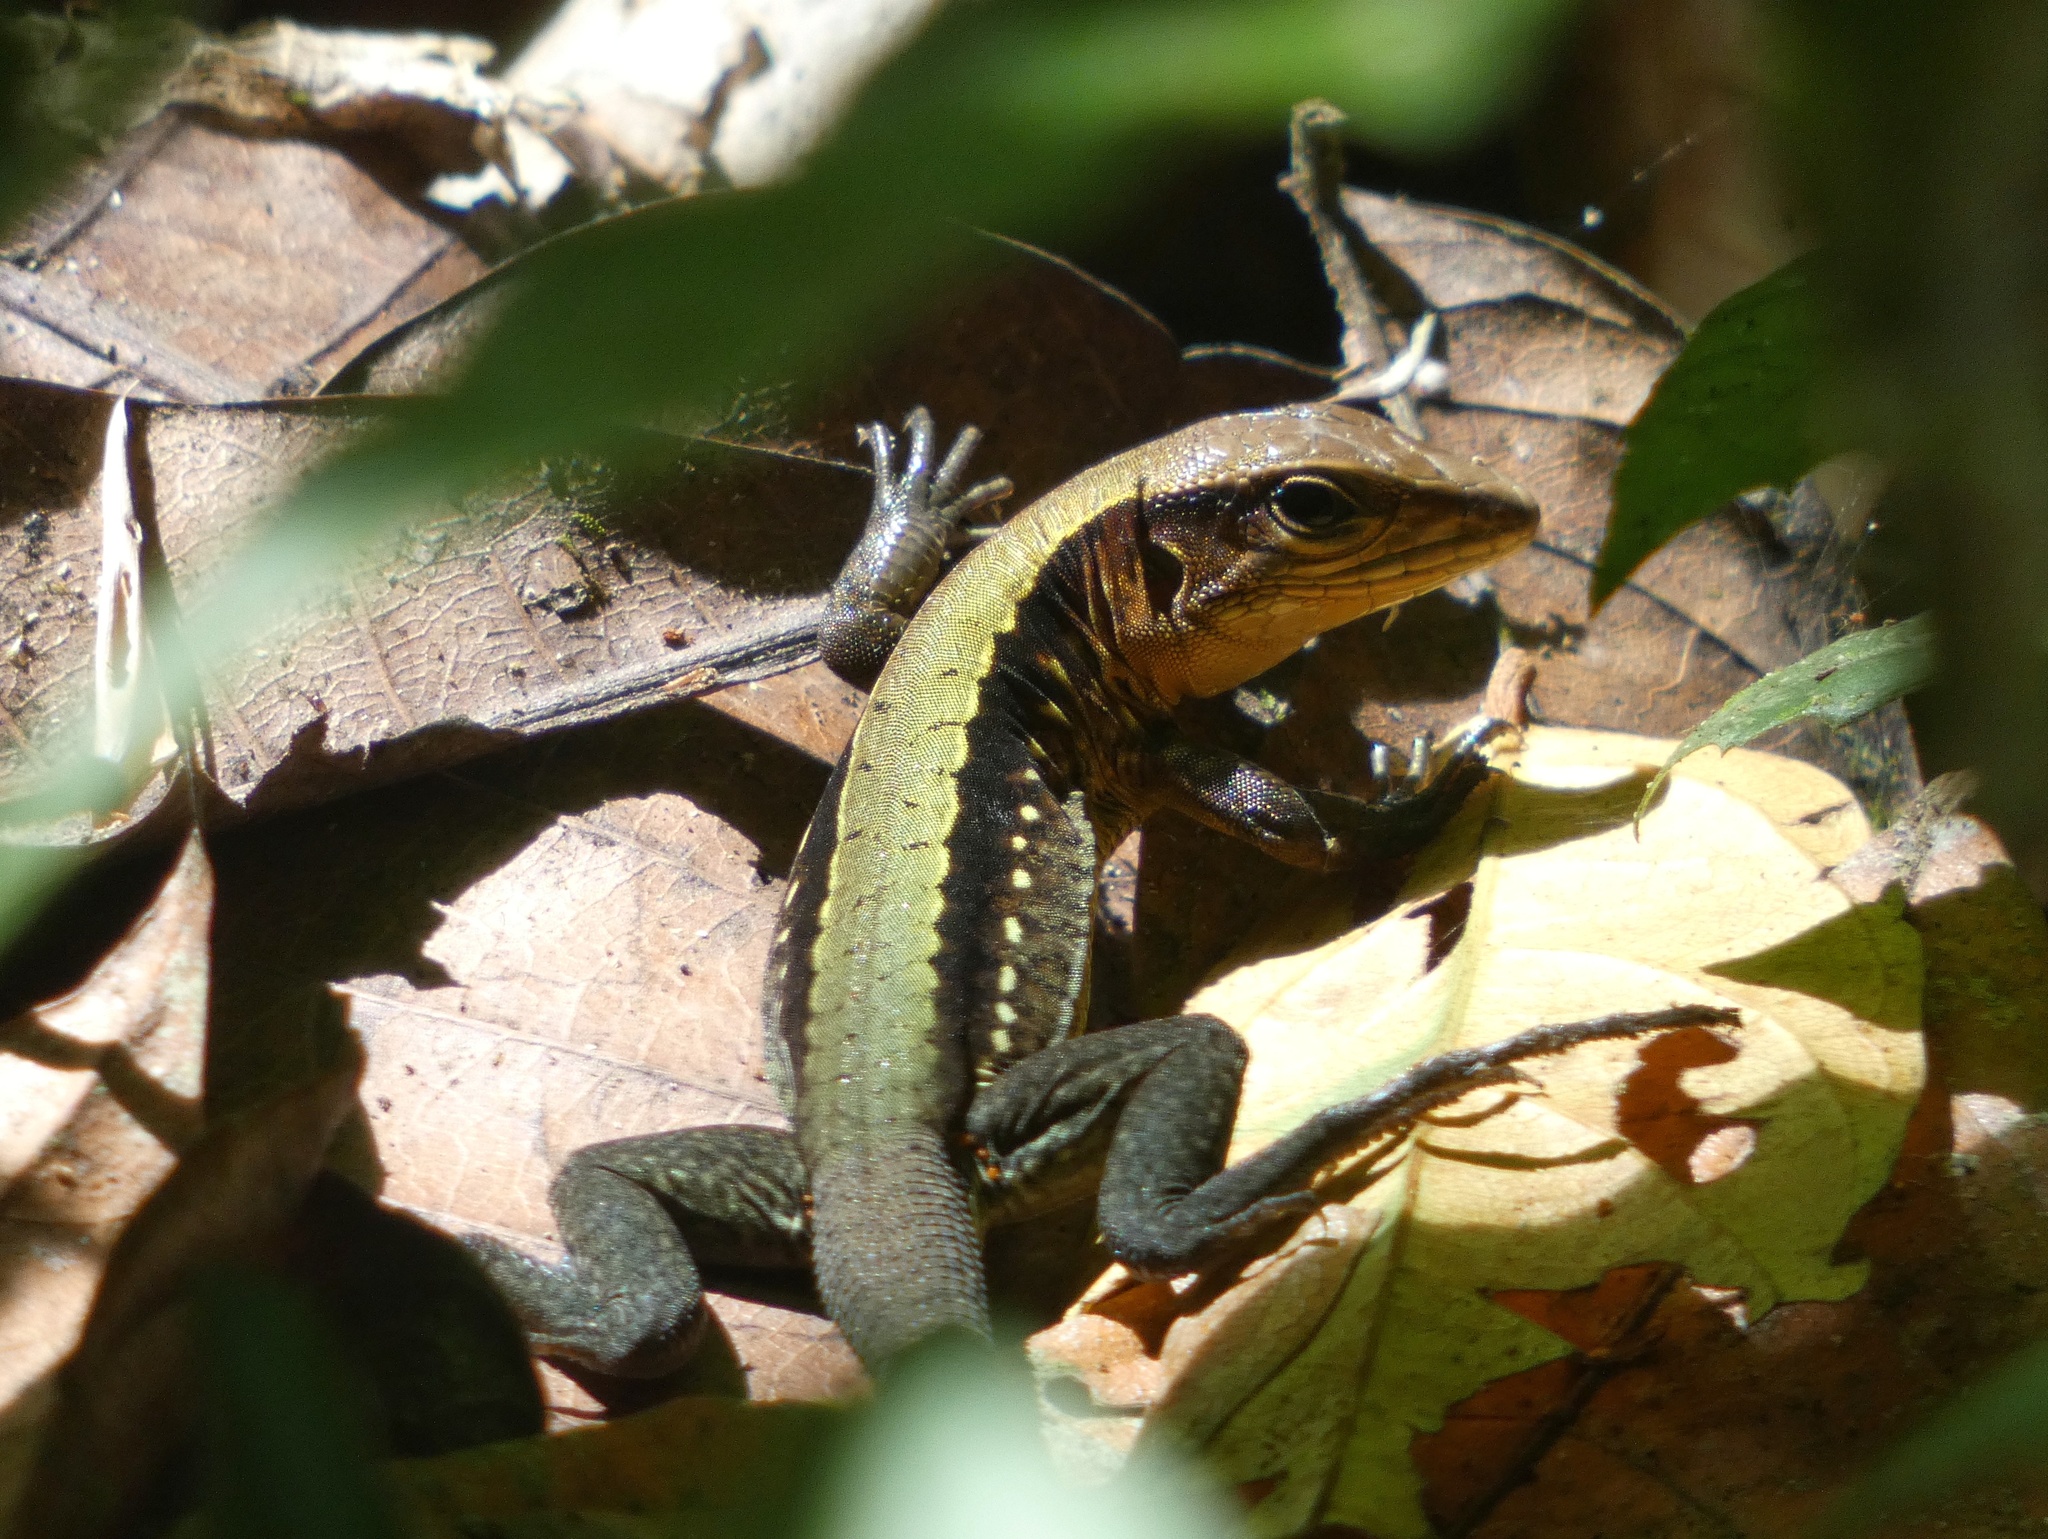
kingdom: Animalia
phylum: Chordata
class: Squamata
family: Teiidae
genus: Holcosus
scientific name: Holcosus leptophrys
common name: Delicate ameiva
